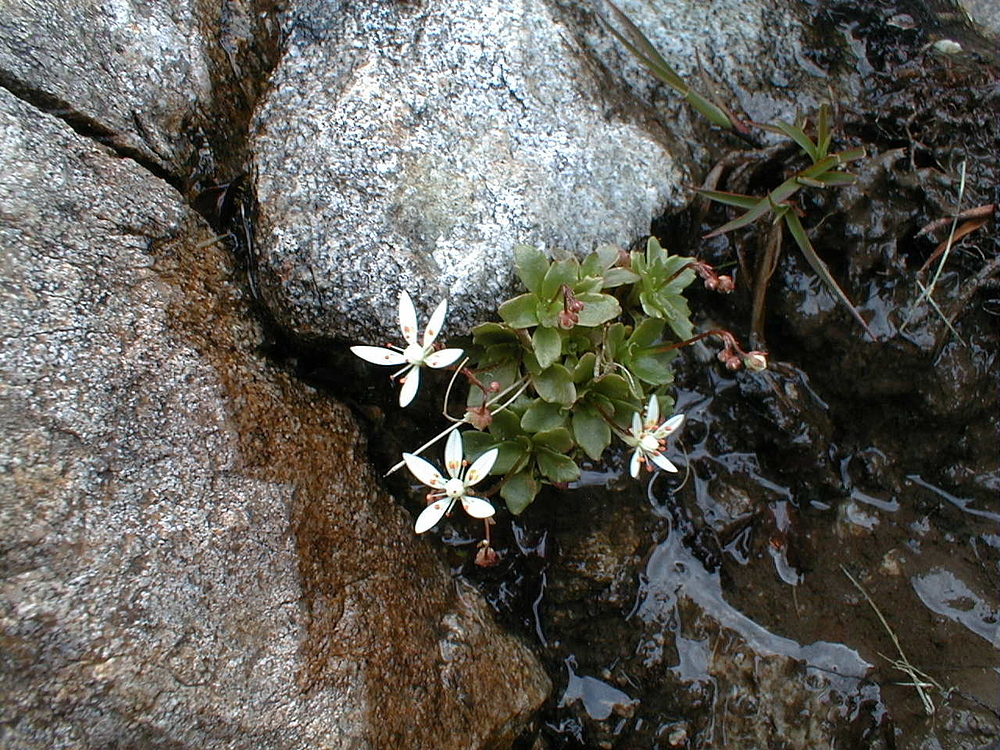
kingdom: Plantae
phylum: Tracheophyta
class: Magnoliopsida
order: Saxifragales
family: Saxifragaceae
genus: Micranthes
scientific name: Micranthes stellaris
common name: Starry saxifrage
